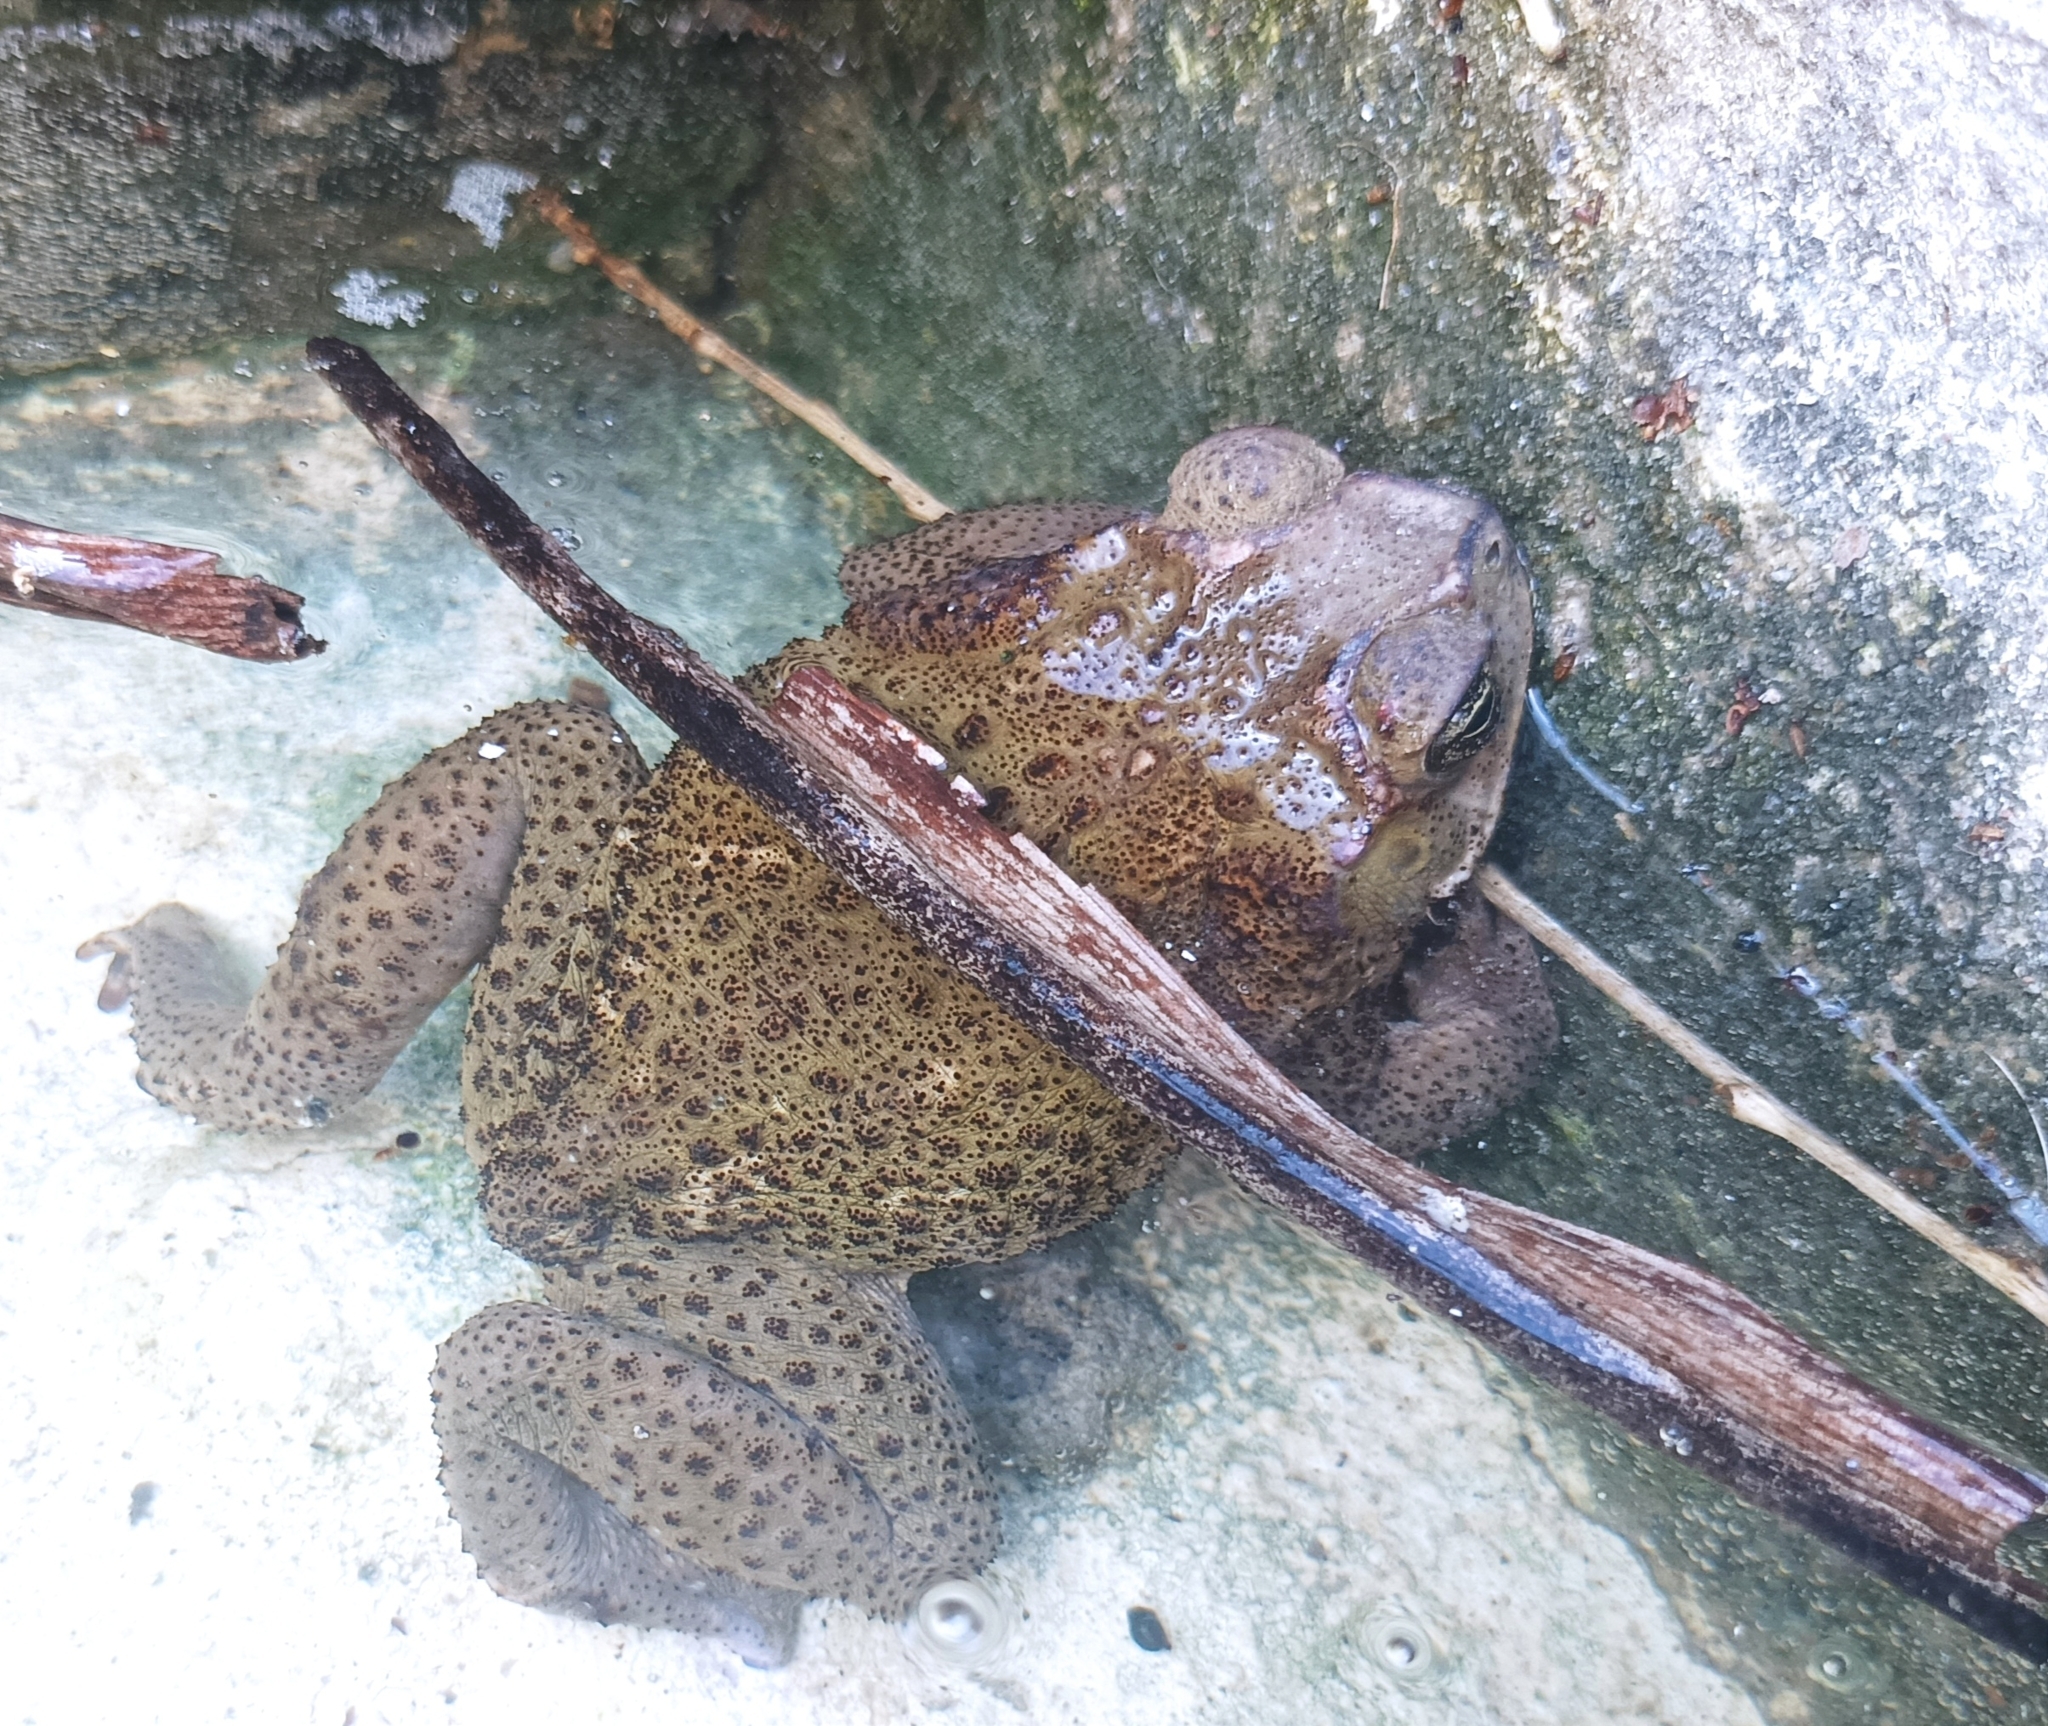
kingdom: Animalia
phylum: Chordata
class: Amphibia
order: Anura
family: Bufonidae
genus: Rhinella
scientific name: Rhinella horribilis
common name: Mesoamerican cane toad
